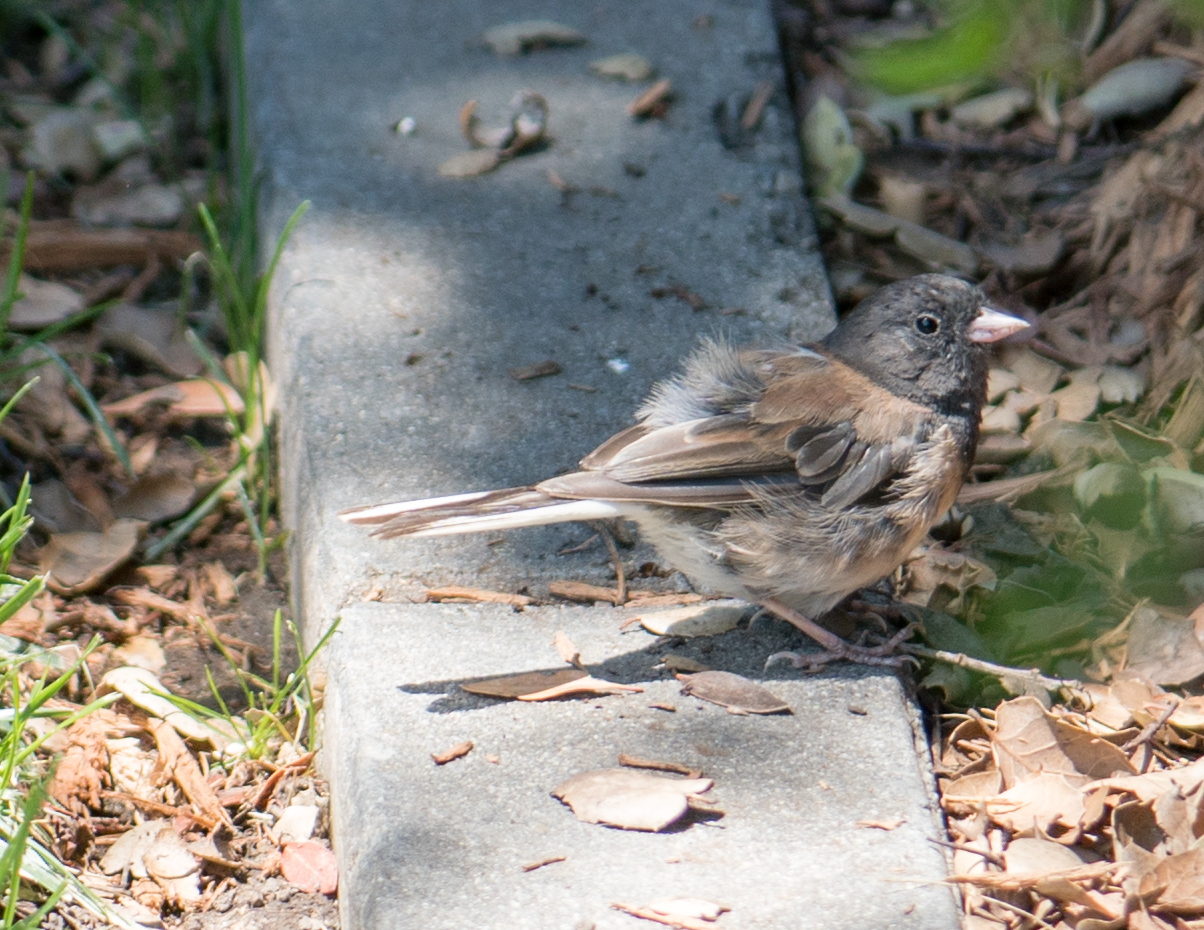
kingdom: Animalia
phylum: Chordata
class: Aves
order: Passeriformes
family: Passerellidae
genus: Junco
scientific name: Junco hyemalis
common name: Dark-eyed junco
